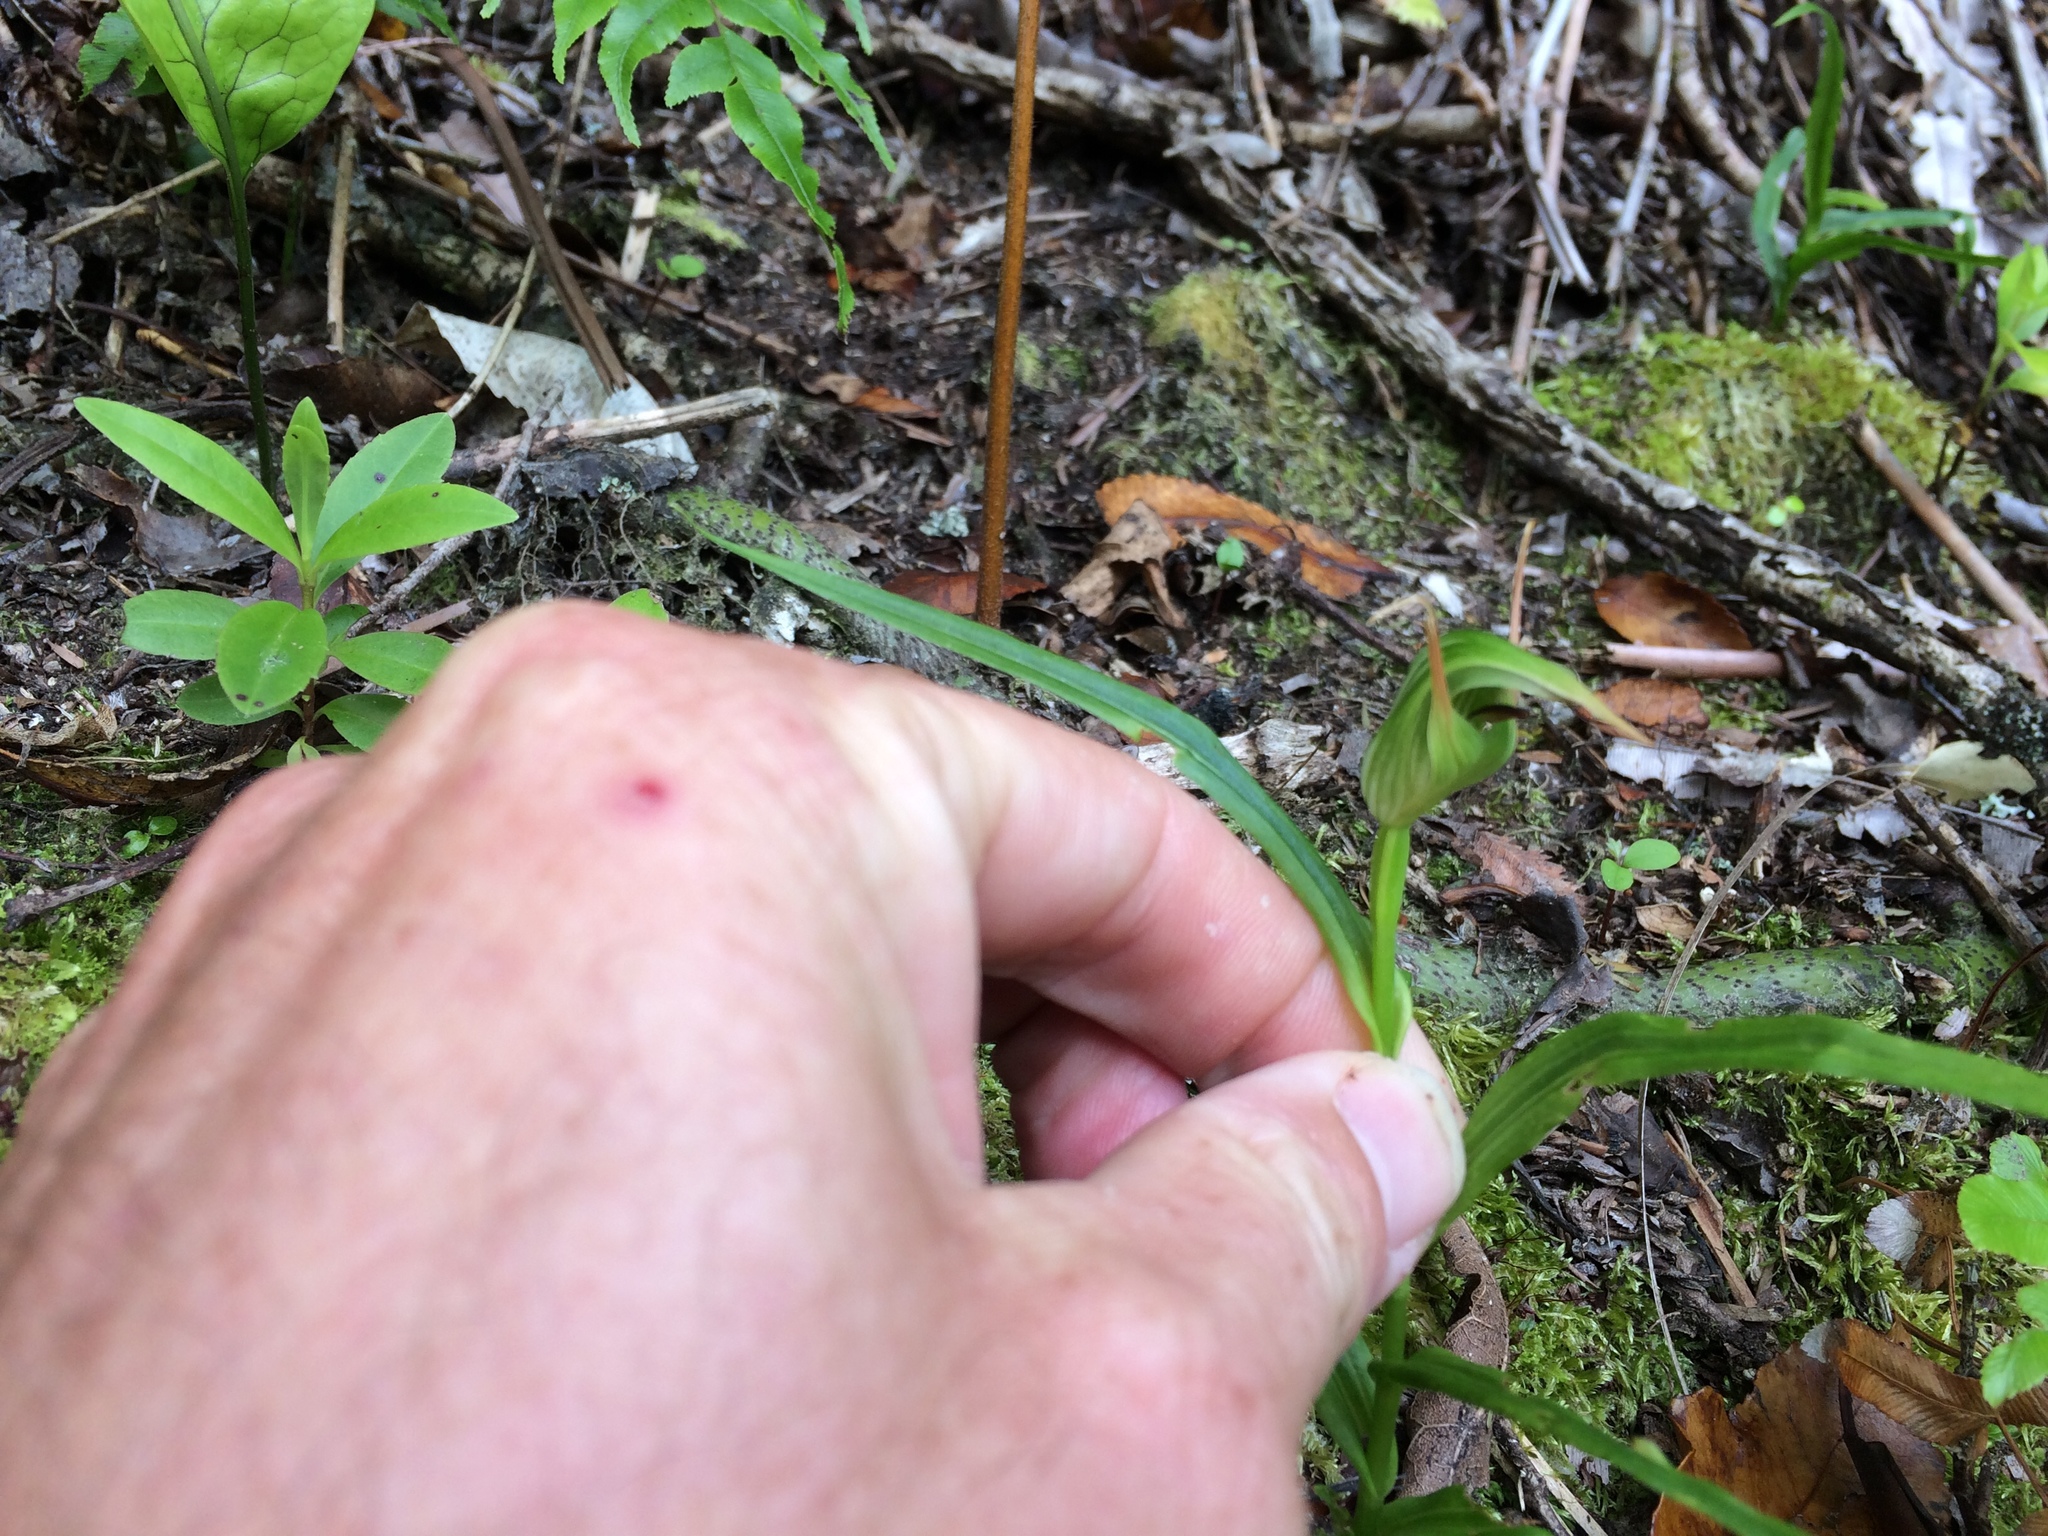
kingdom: Plantae
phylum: Tracheophyta
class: Liliopsida
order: Asparagales
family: Orchidaceae
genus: Pterostylis
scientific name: Pterostylis montana
